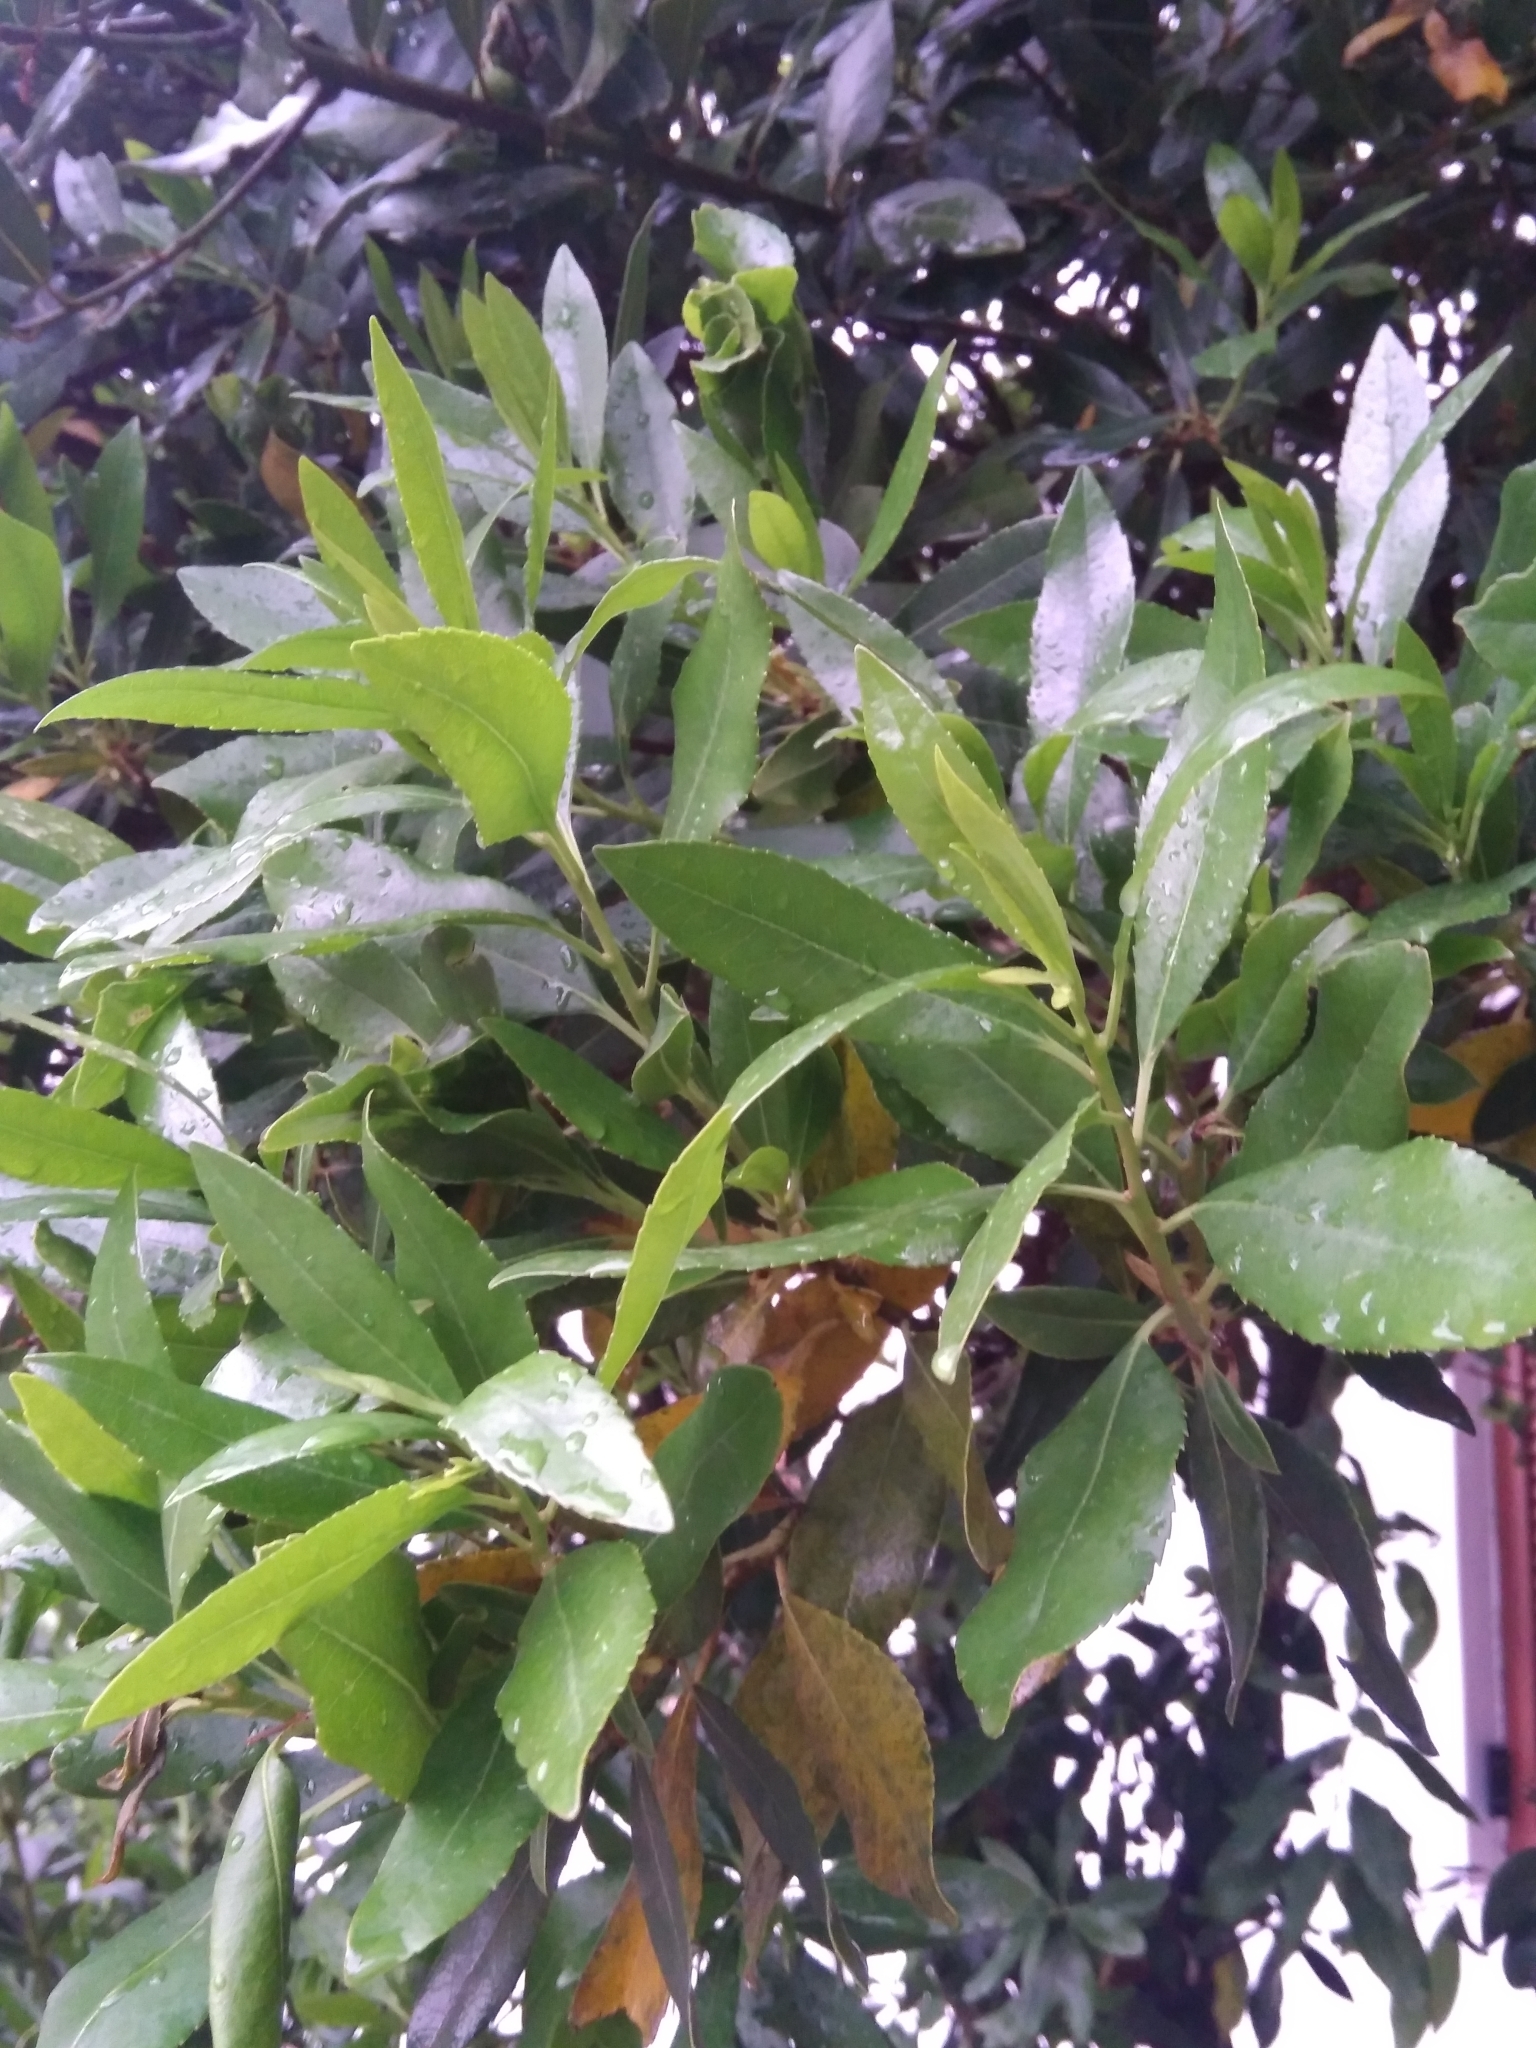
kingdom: Plantae
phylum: Tracheophyta
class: Magnoliopsida
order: Ericales
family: Ericaceae
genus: Arbutus
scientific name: Arbutus unedo
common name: Strawberry-tree
